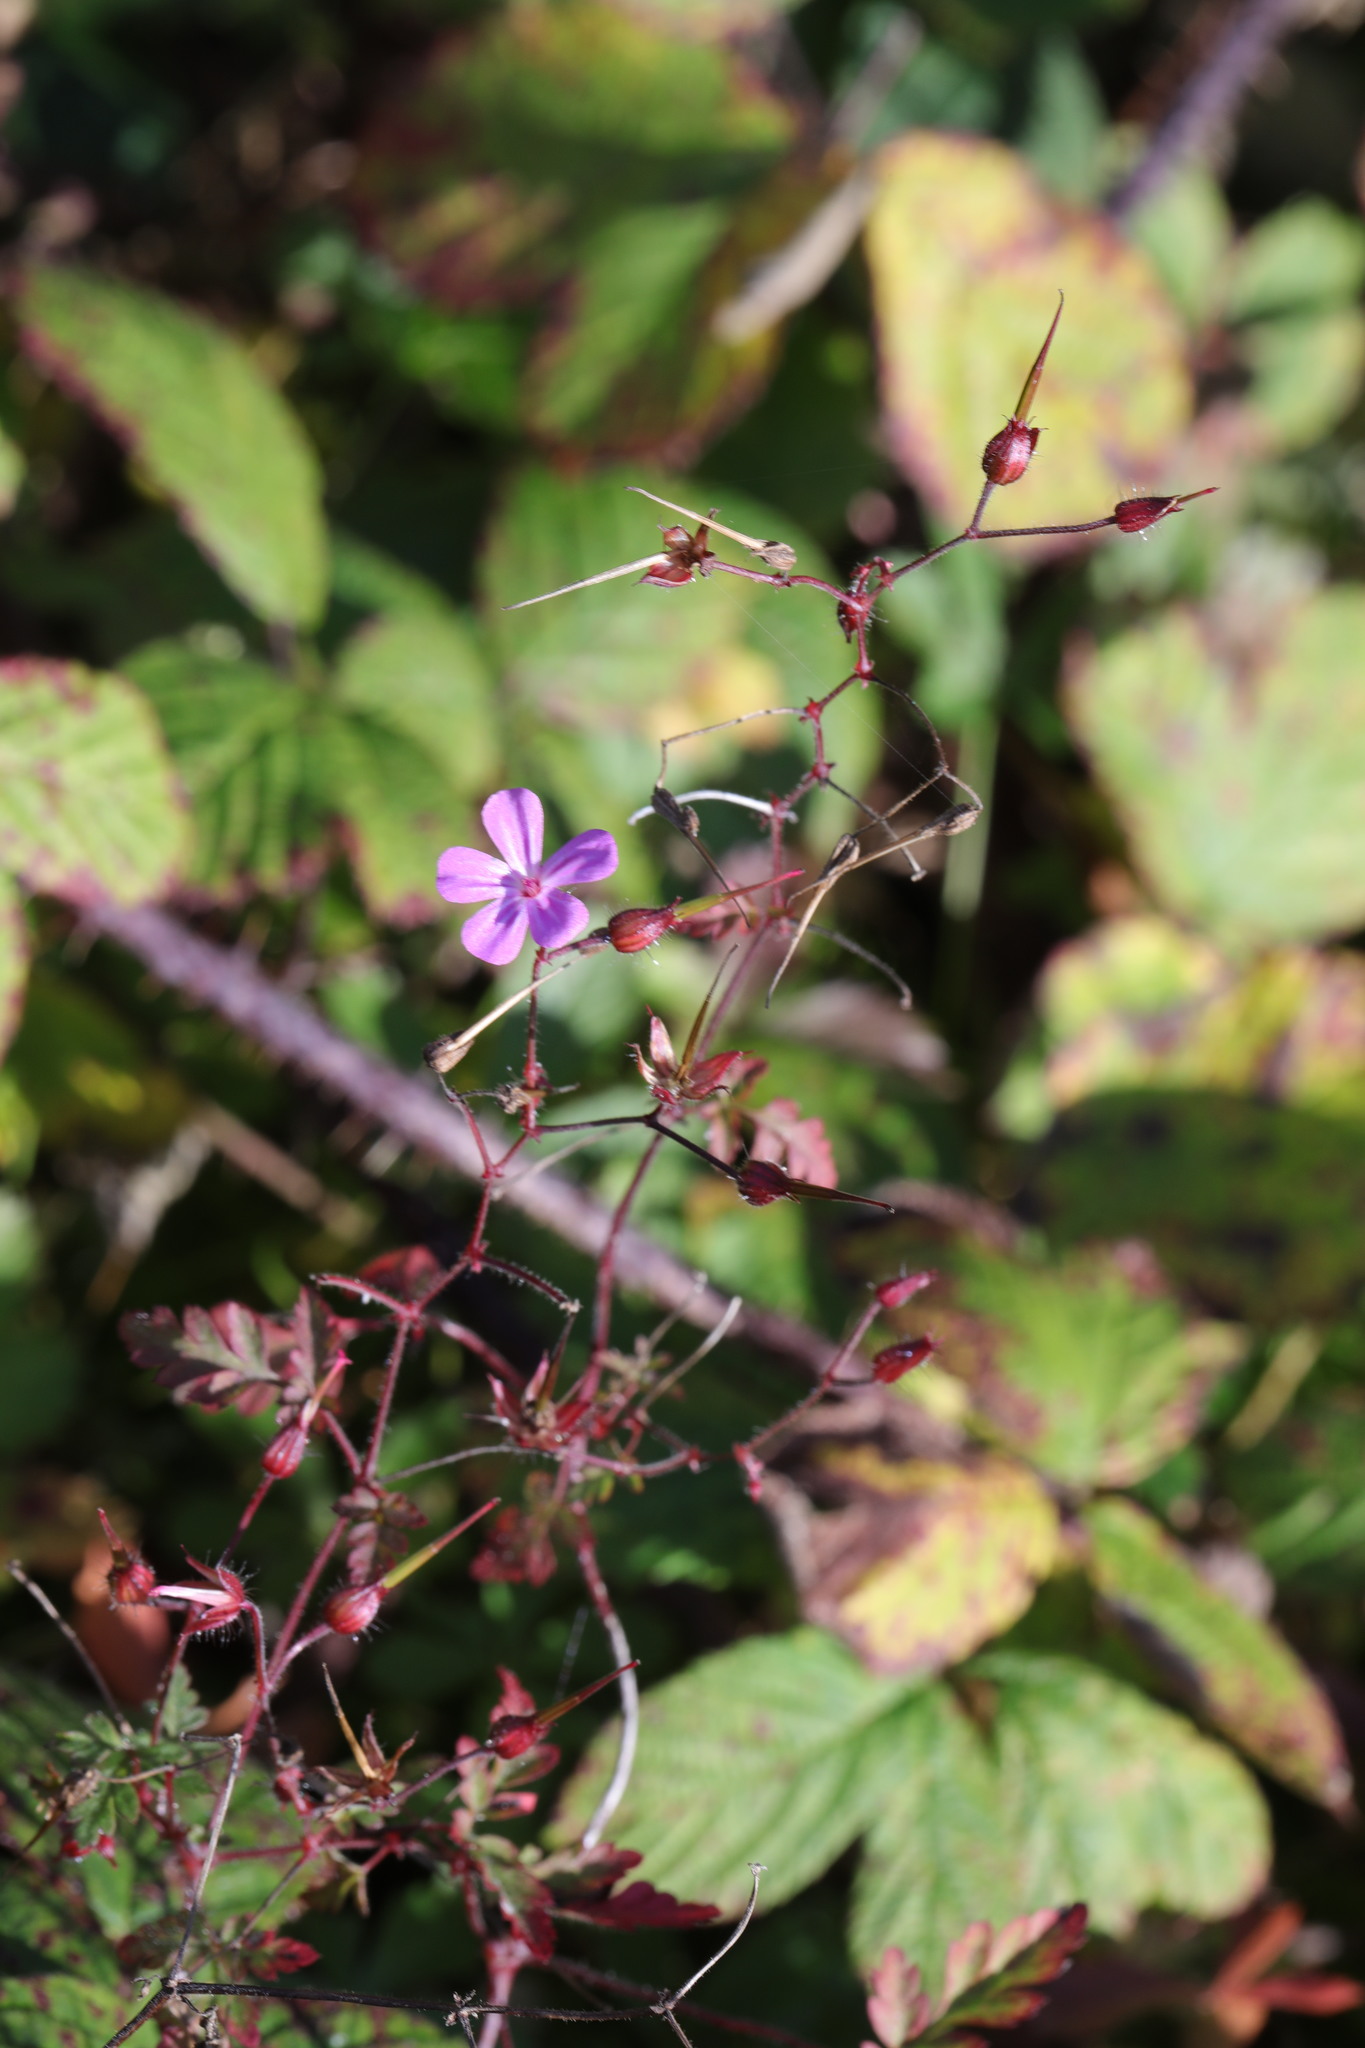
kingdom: Plantae
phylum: Tracheophyta
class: Magnoliopsida
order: Geraniales
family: Geraniaceae
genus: Geranium
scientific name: Geranium robertianum
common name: Herb-robert
